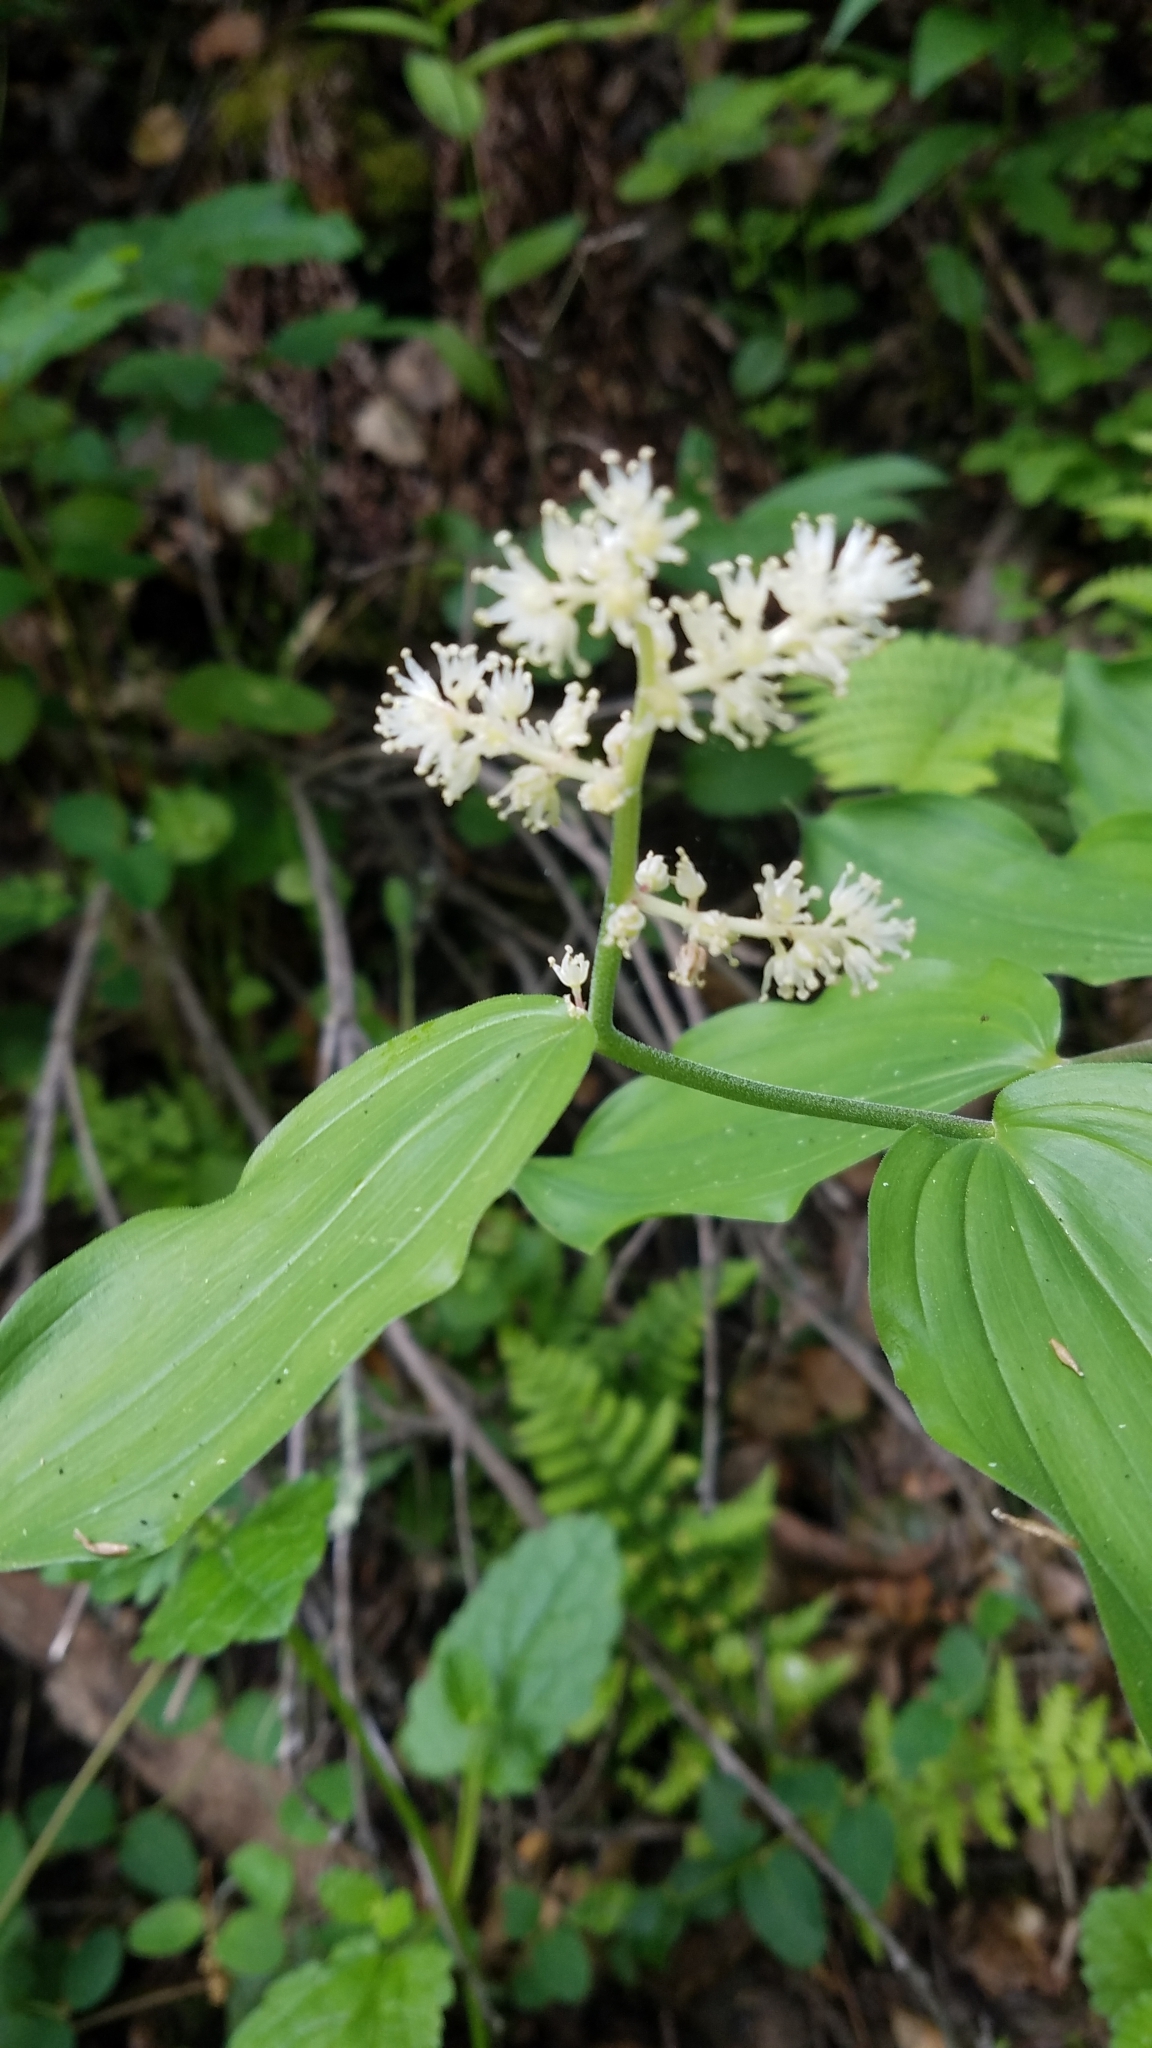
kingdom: Plantae
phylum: Tracheophyta
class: Liliopsida
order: Asparagales
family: Asparagaceae
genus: Maianthemum
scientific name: Maianthemum racemosum
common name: False spikenard
